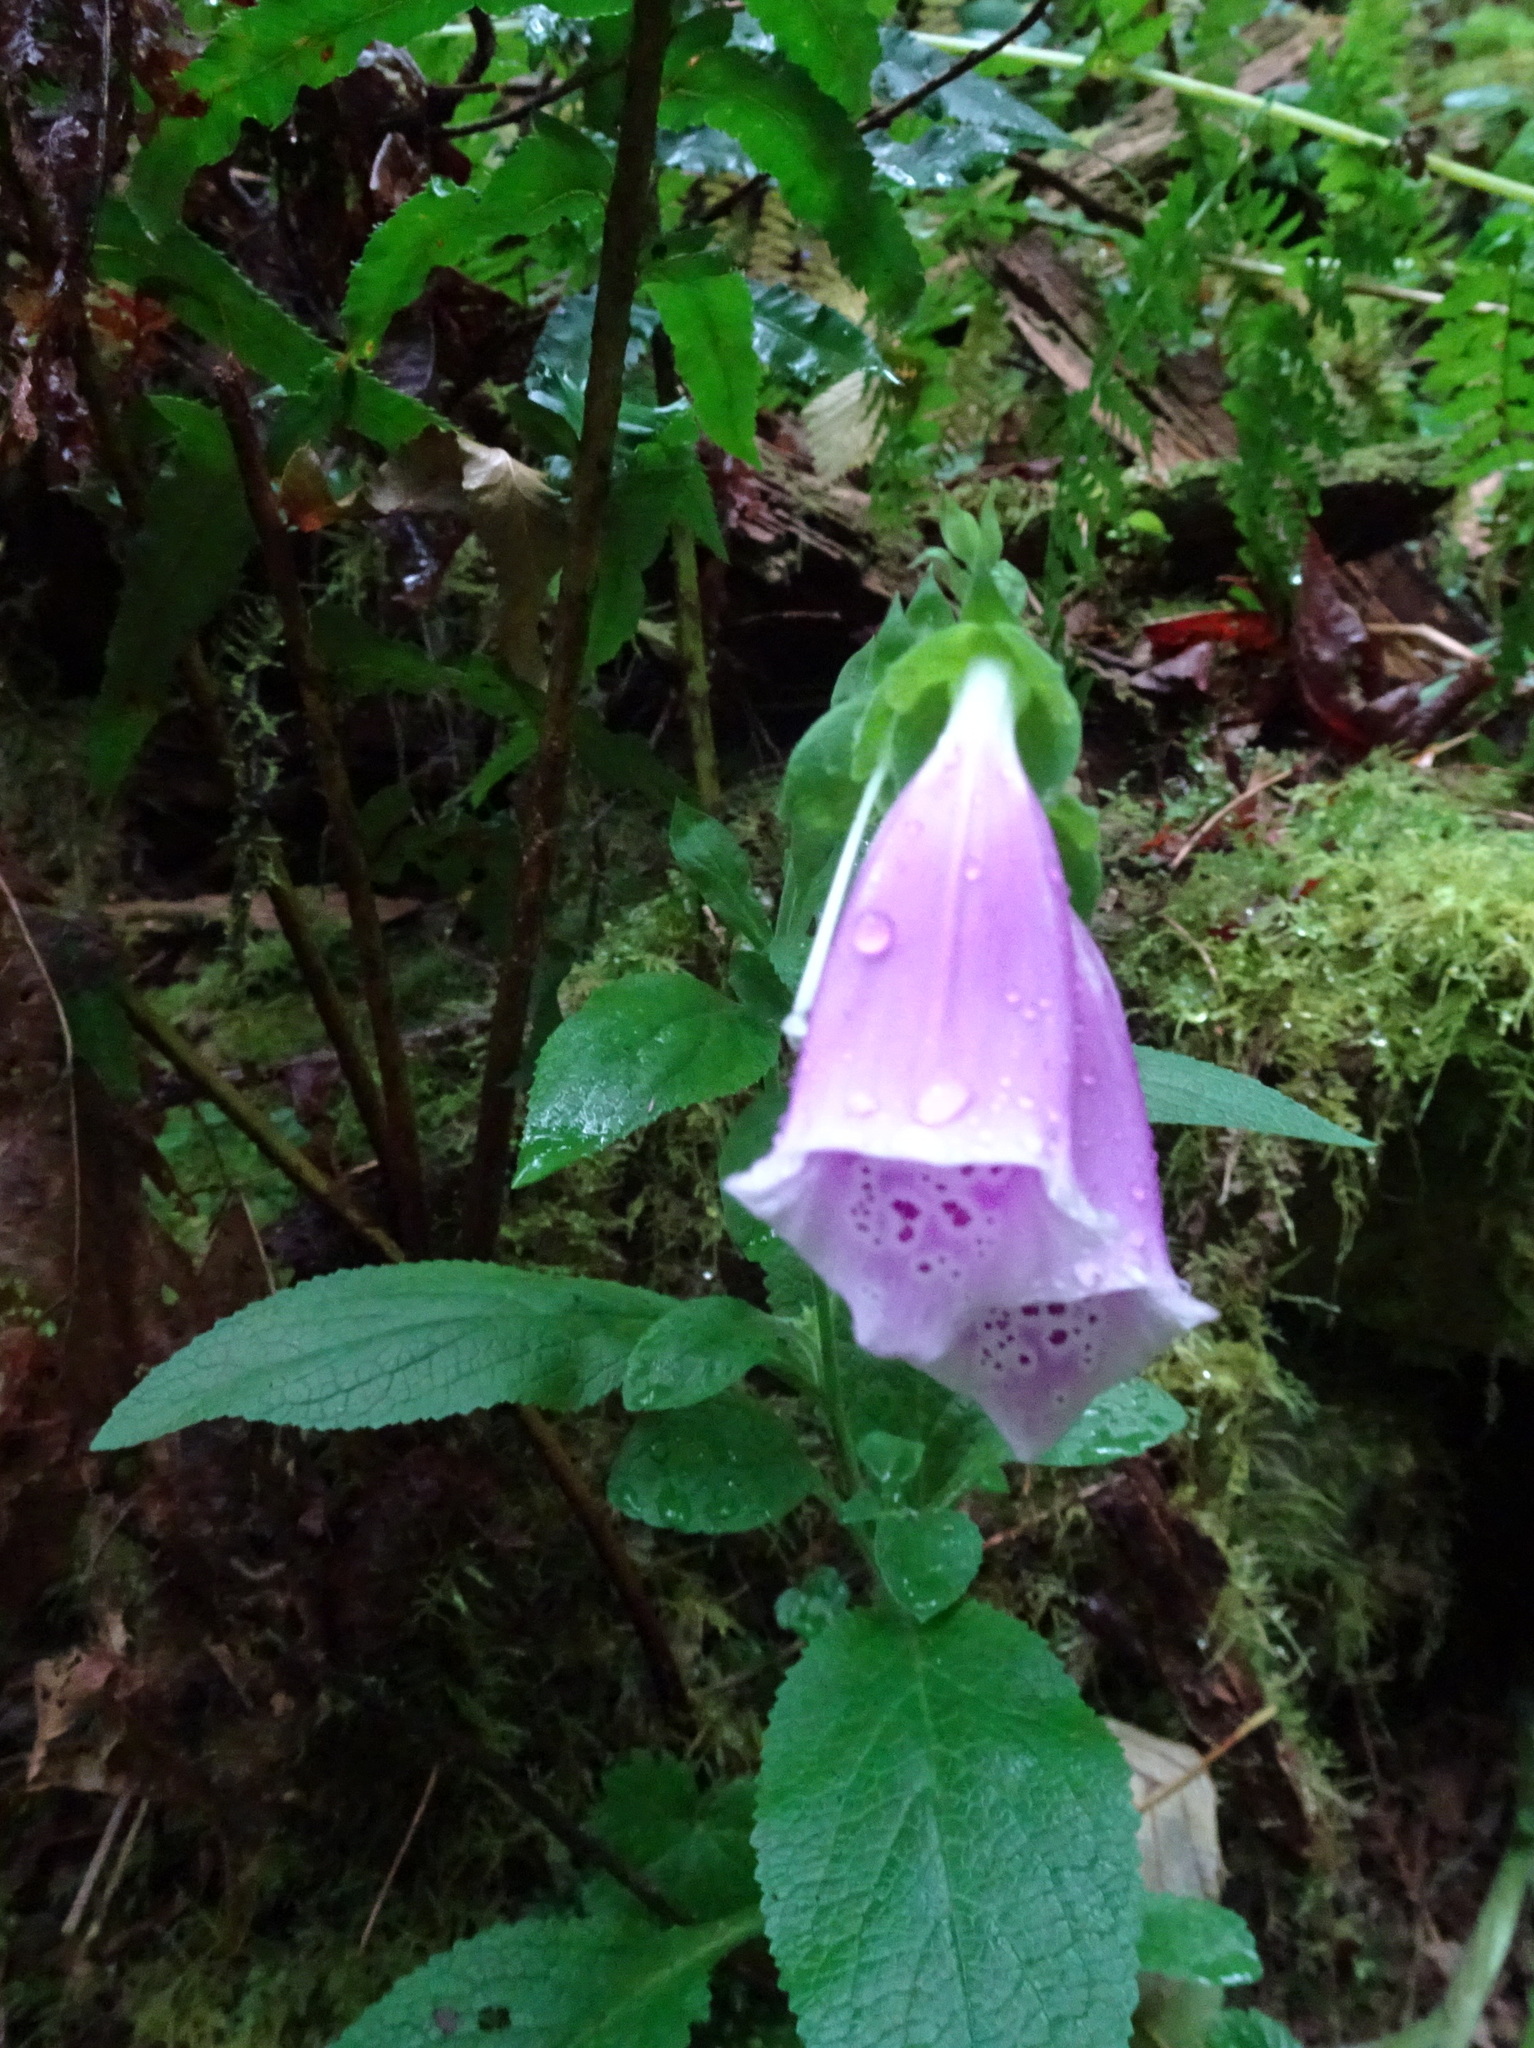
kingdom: Plantae
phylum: Tracheophyta
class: Magnoliopsida
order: Lamiales
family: Plantaginaceae
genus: Digitalis
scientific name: Digitalis purpurea
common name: Foxglove
